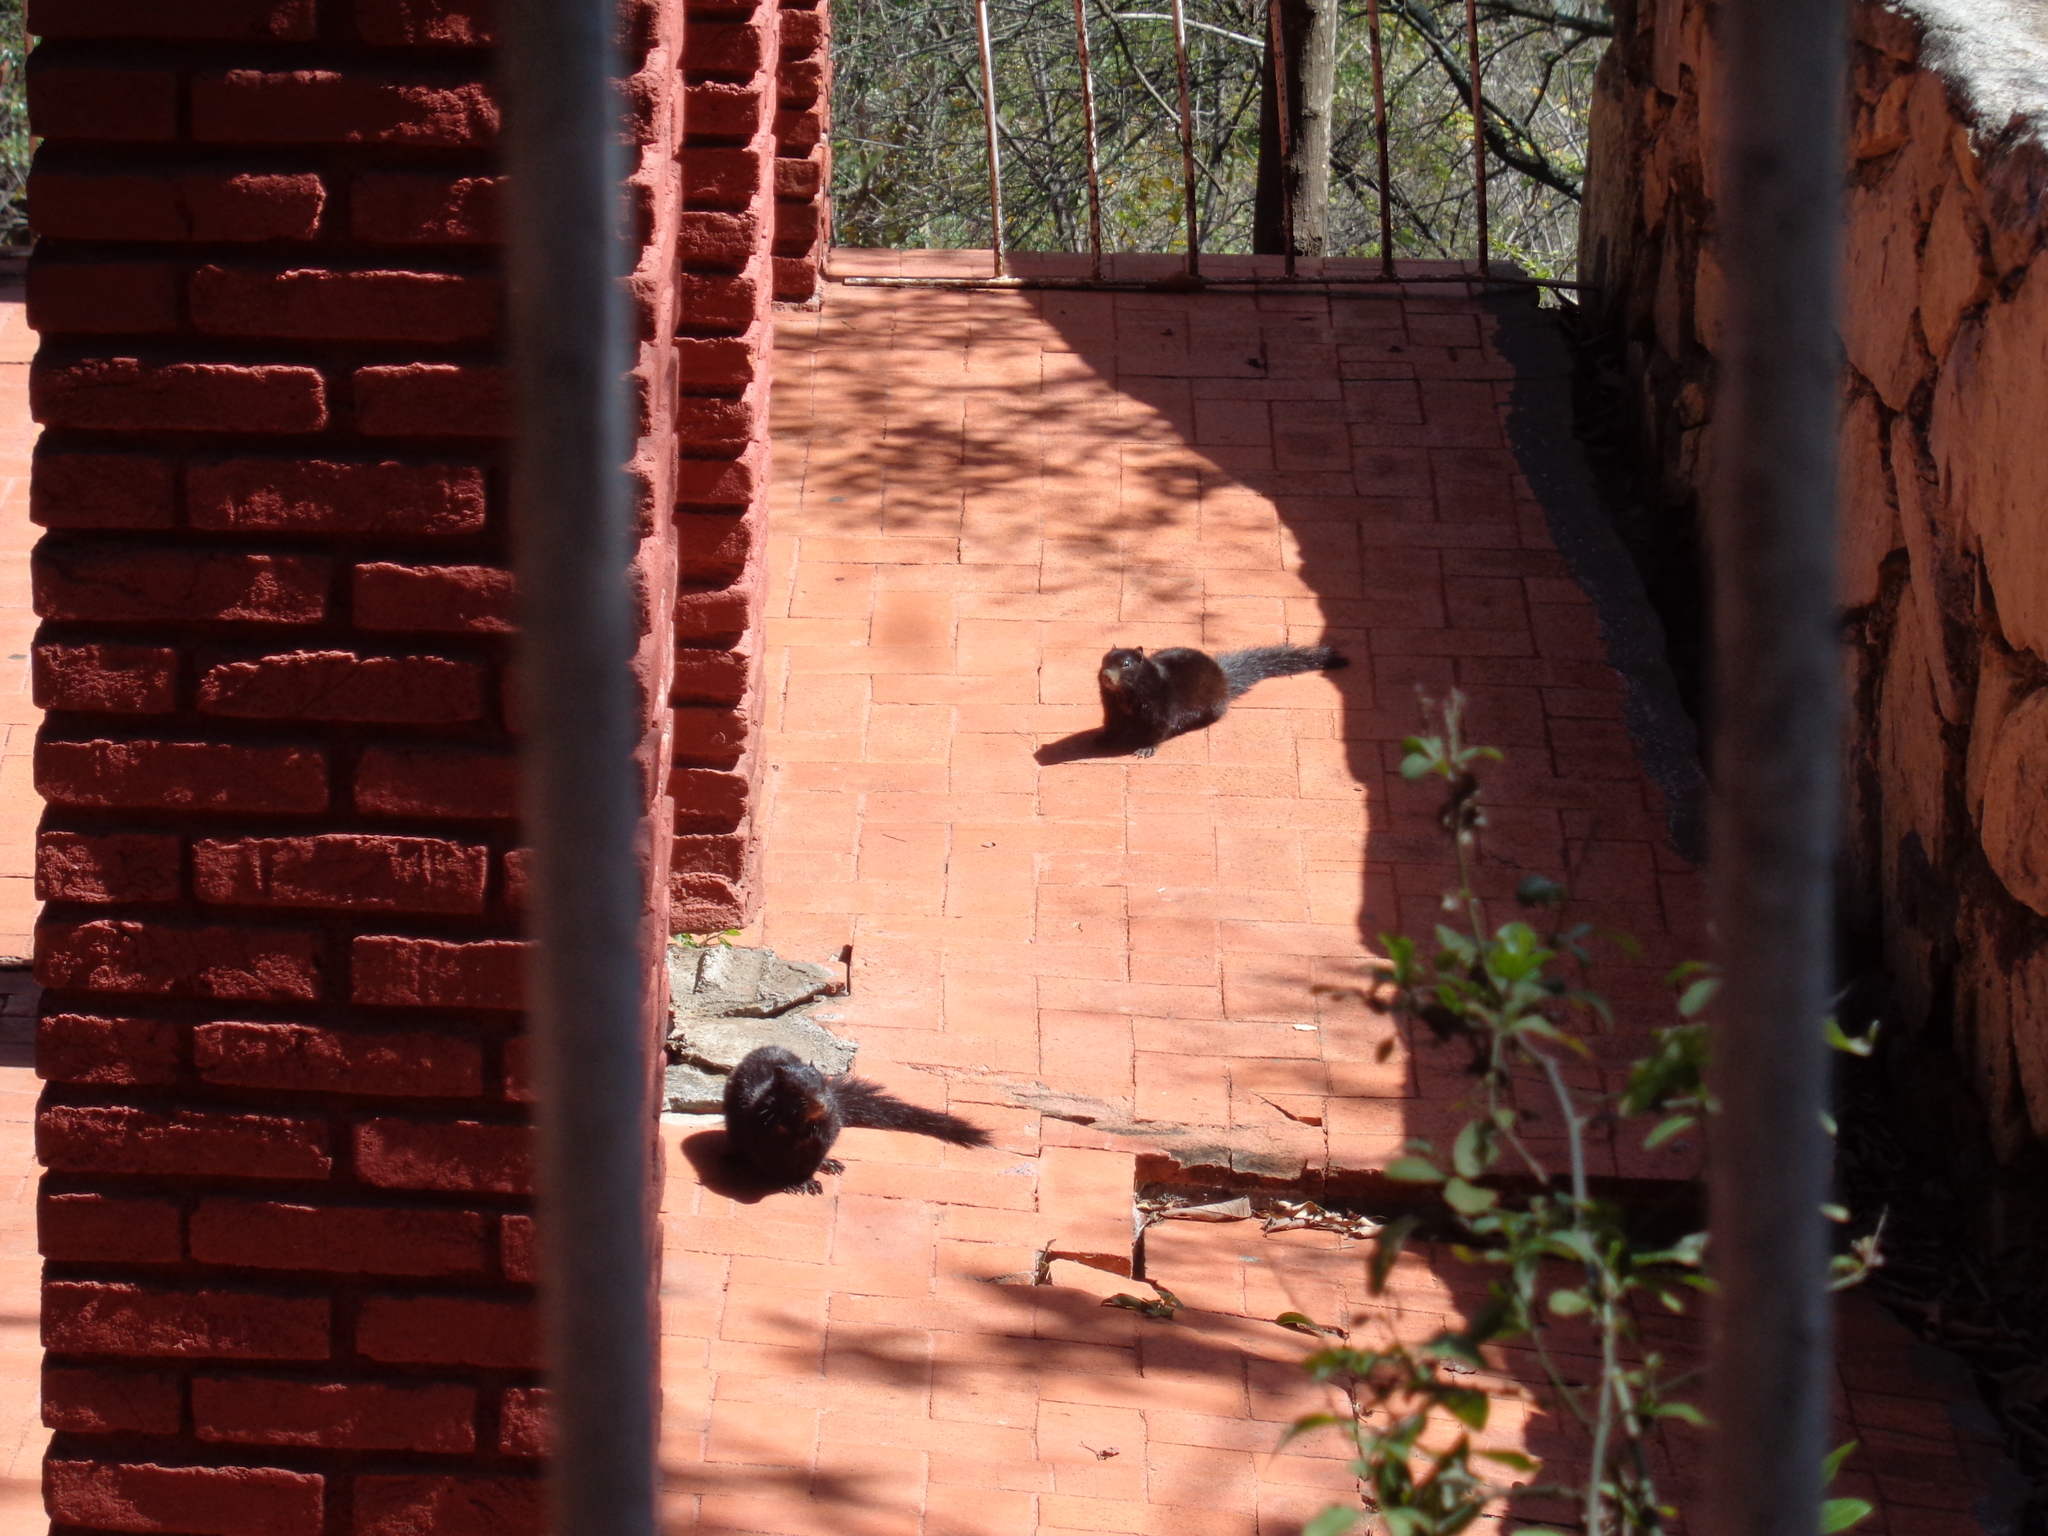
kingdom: Animalia
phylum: Chordata
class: Mammalia
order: Rodentia
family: Sciuridae
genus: Otospermophilus
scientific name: Otospermophilus variegatus
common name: Rock squirrel
